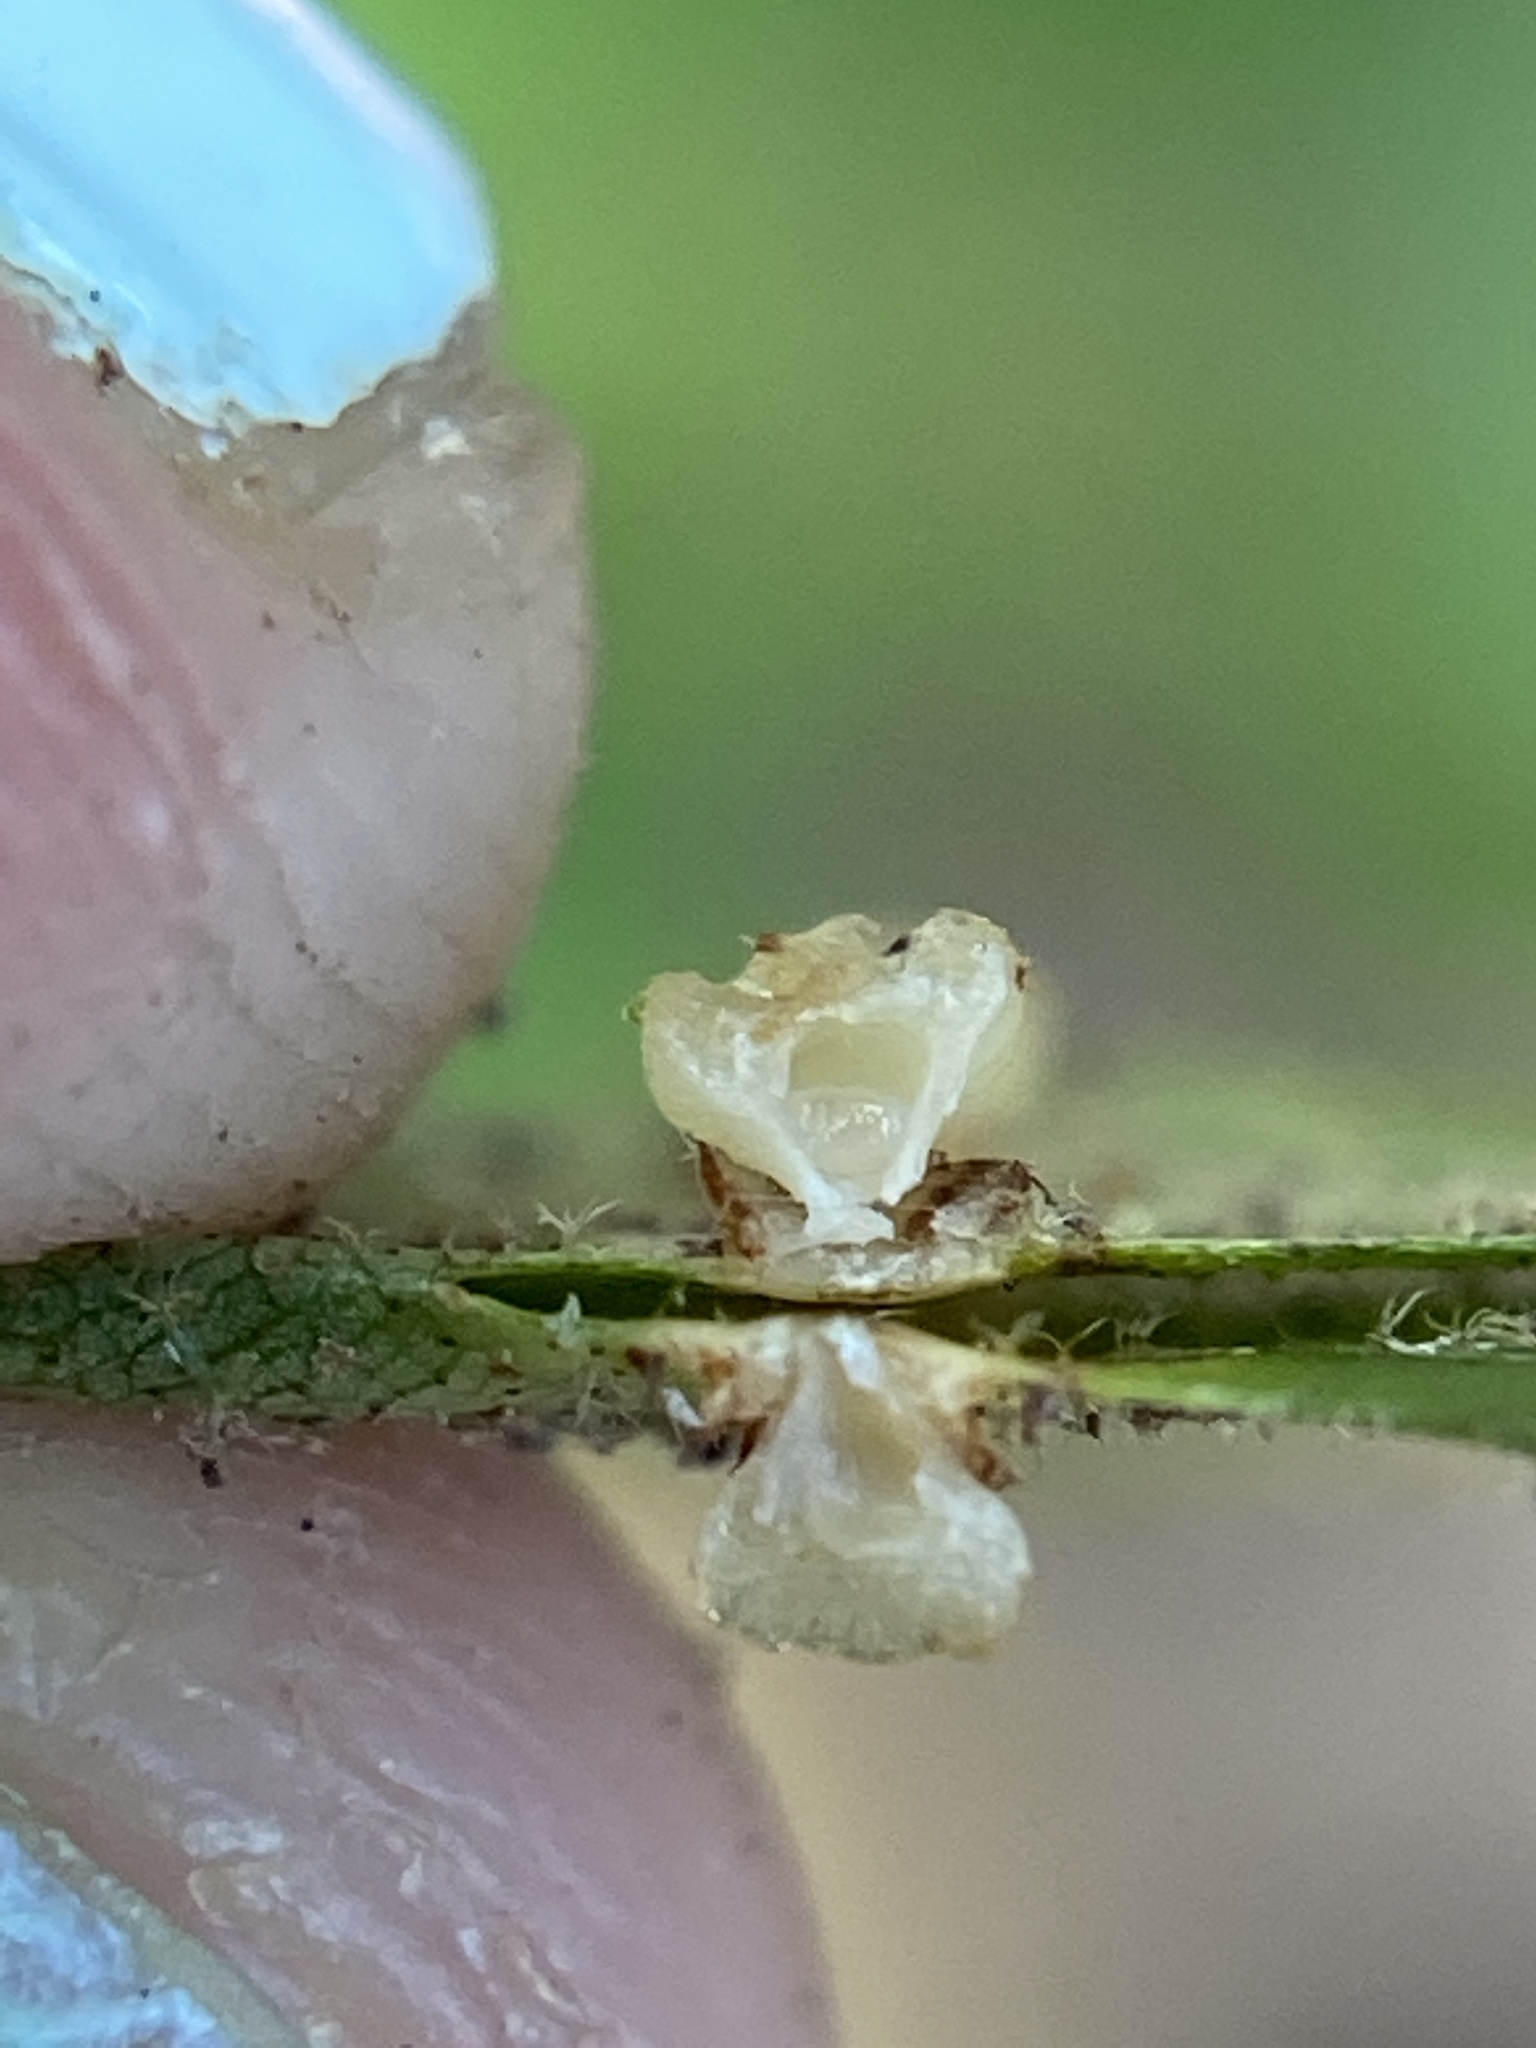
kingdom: Animalia
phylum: Arthropoda
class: Insecta
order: Diptera
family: Cecidomyiidae
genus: Caryomyia
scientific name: Caryomyia melicrustum
